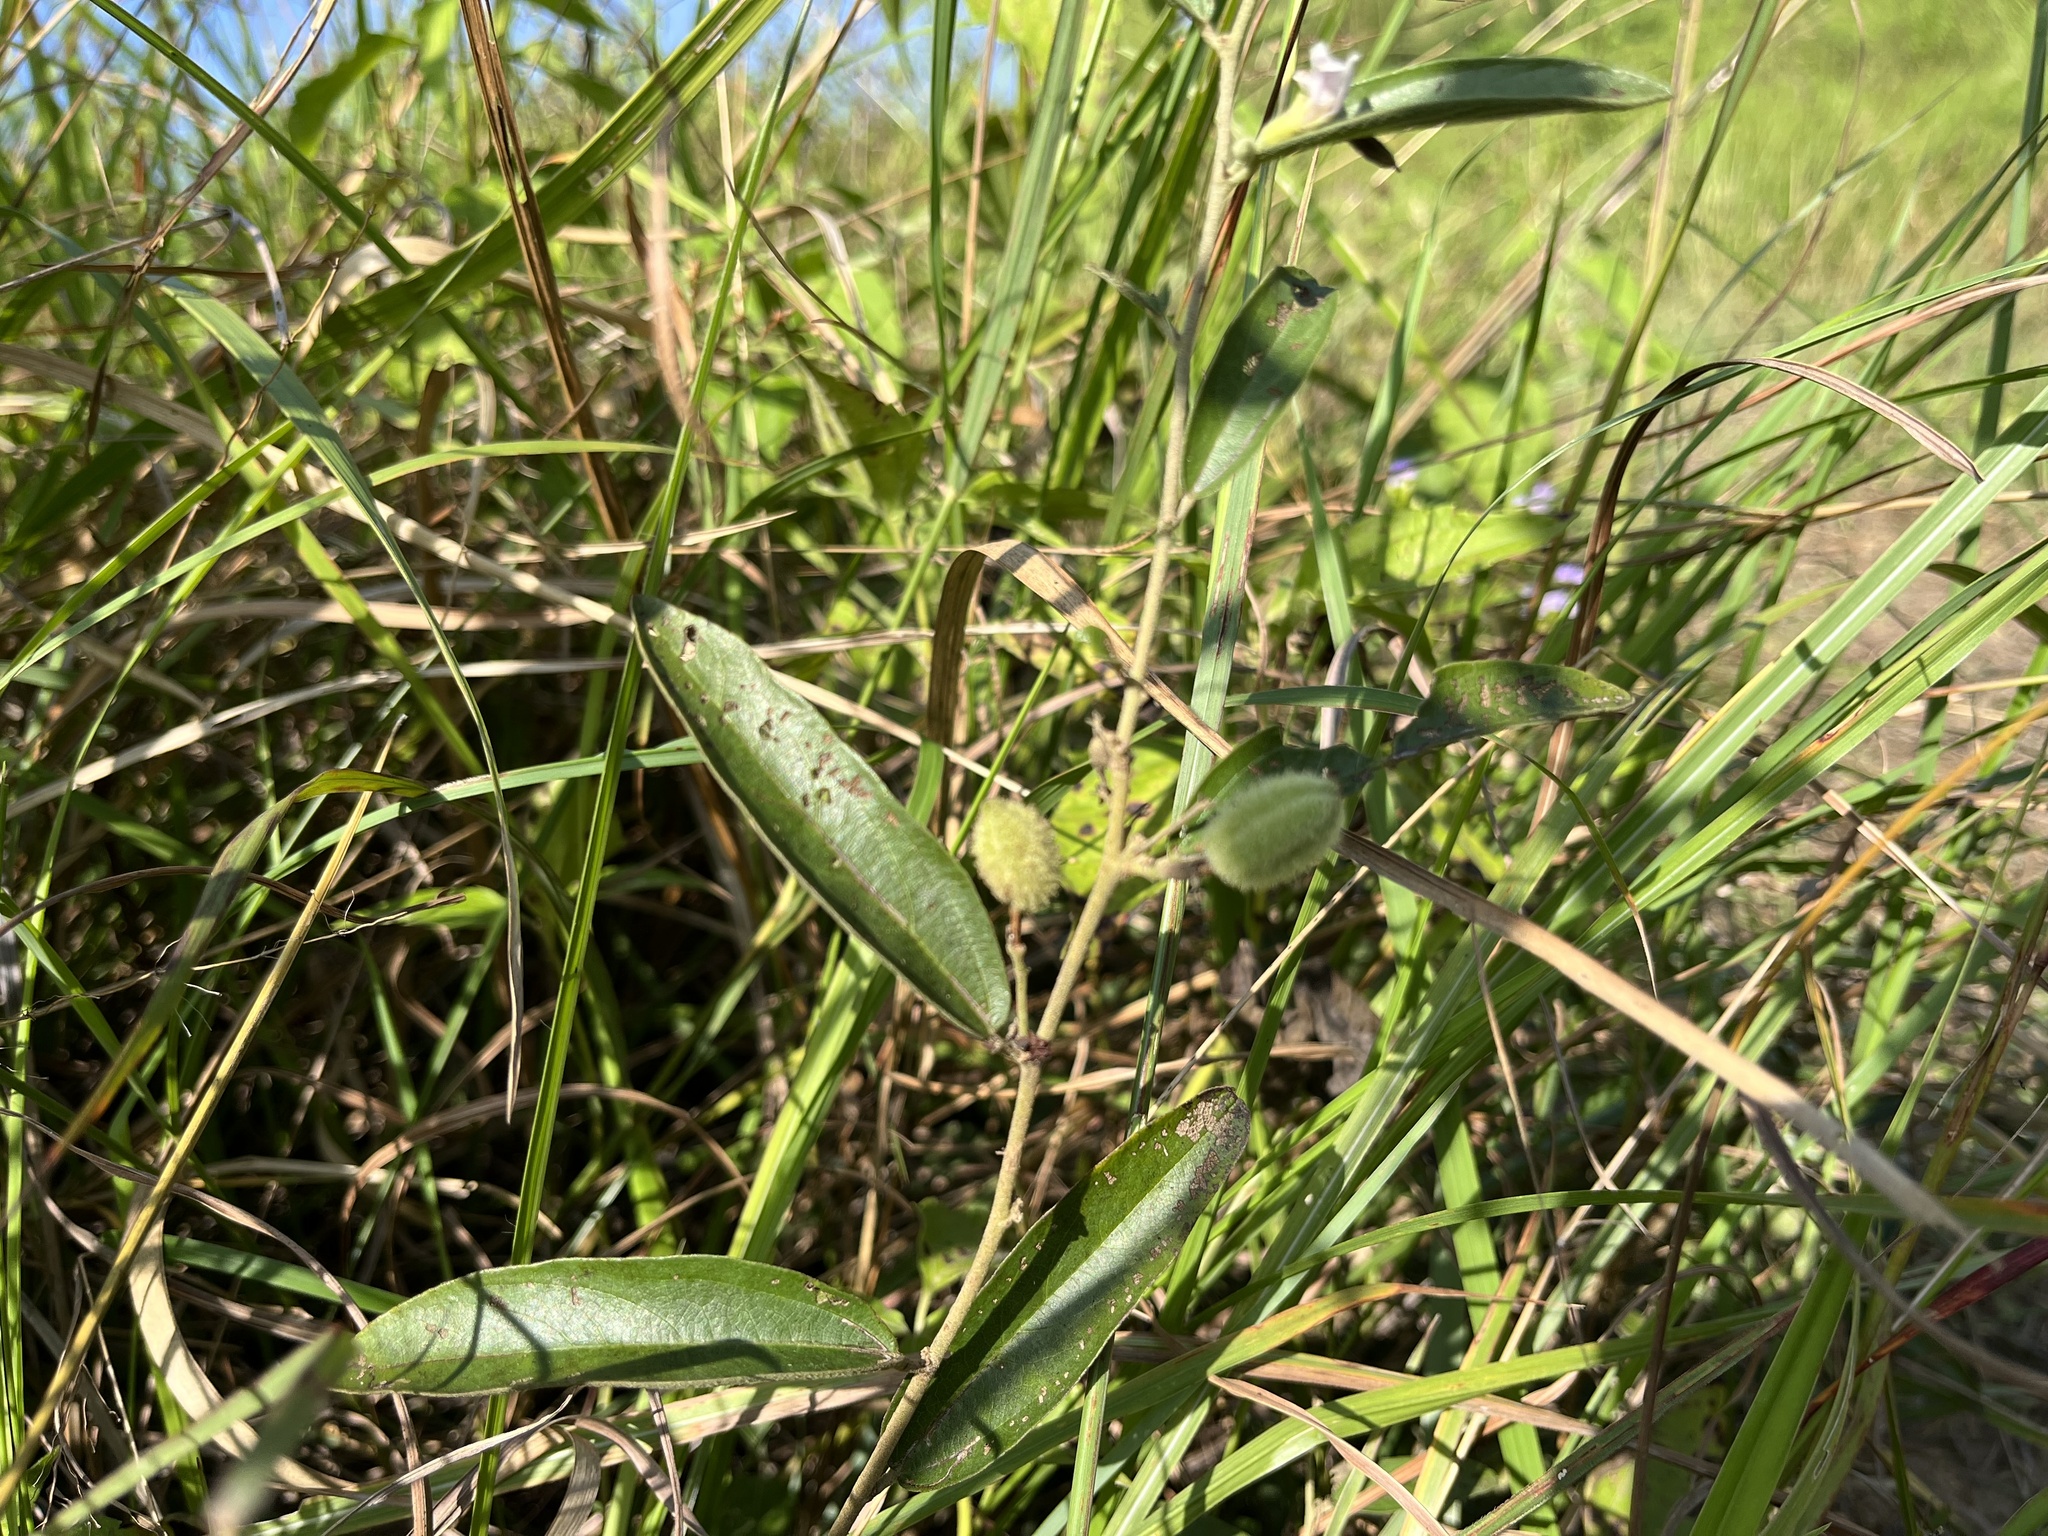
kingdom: Plantae
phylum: Tracheophyta
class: Magnoliopsida
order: Malvales
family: Malvaceae
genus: Helicteres
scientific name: Helicteres angustifolia
